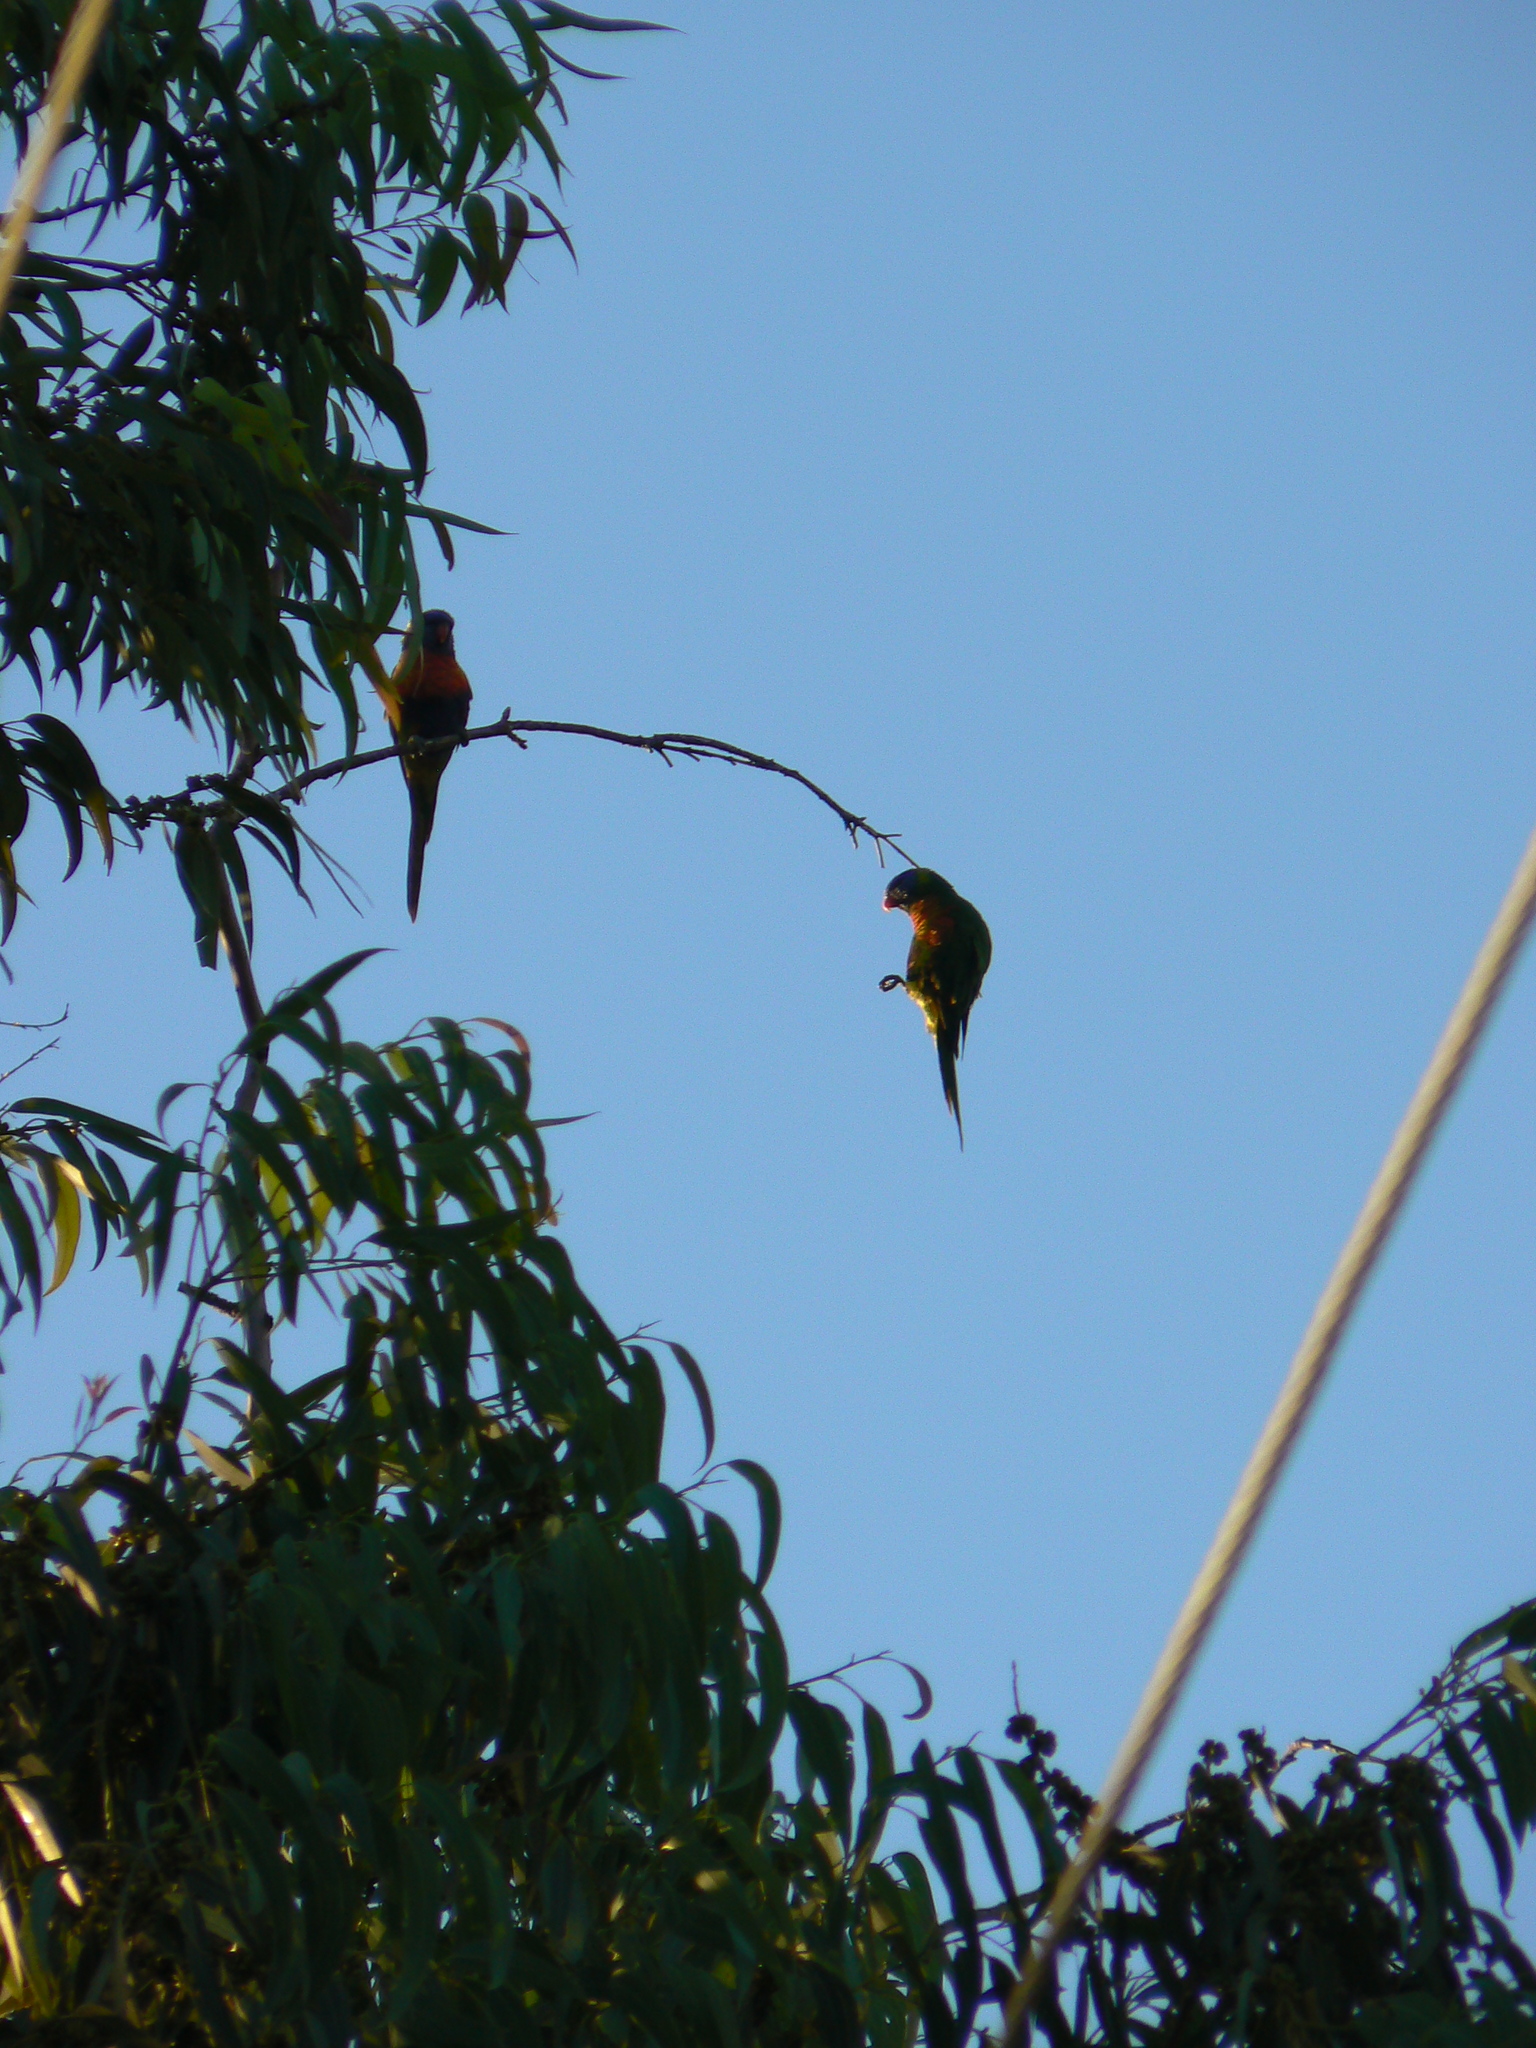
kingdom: Animalia
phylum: Chordata
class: Aves
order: Psittaciformes
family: Psittacidae
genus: Trichoglossus
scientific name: Trichoglossus haematodus
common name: Coconut lorikeet
